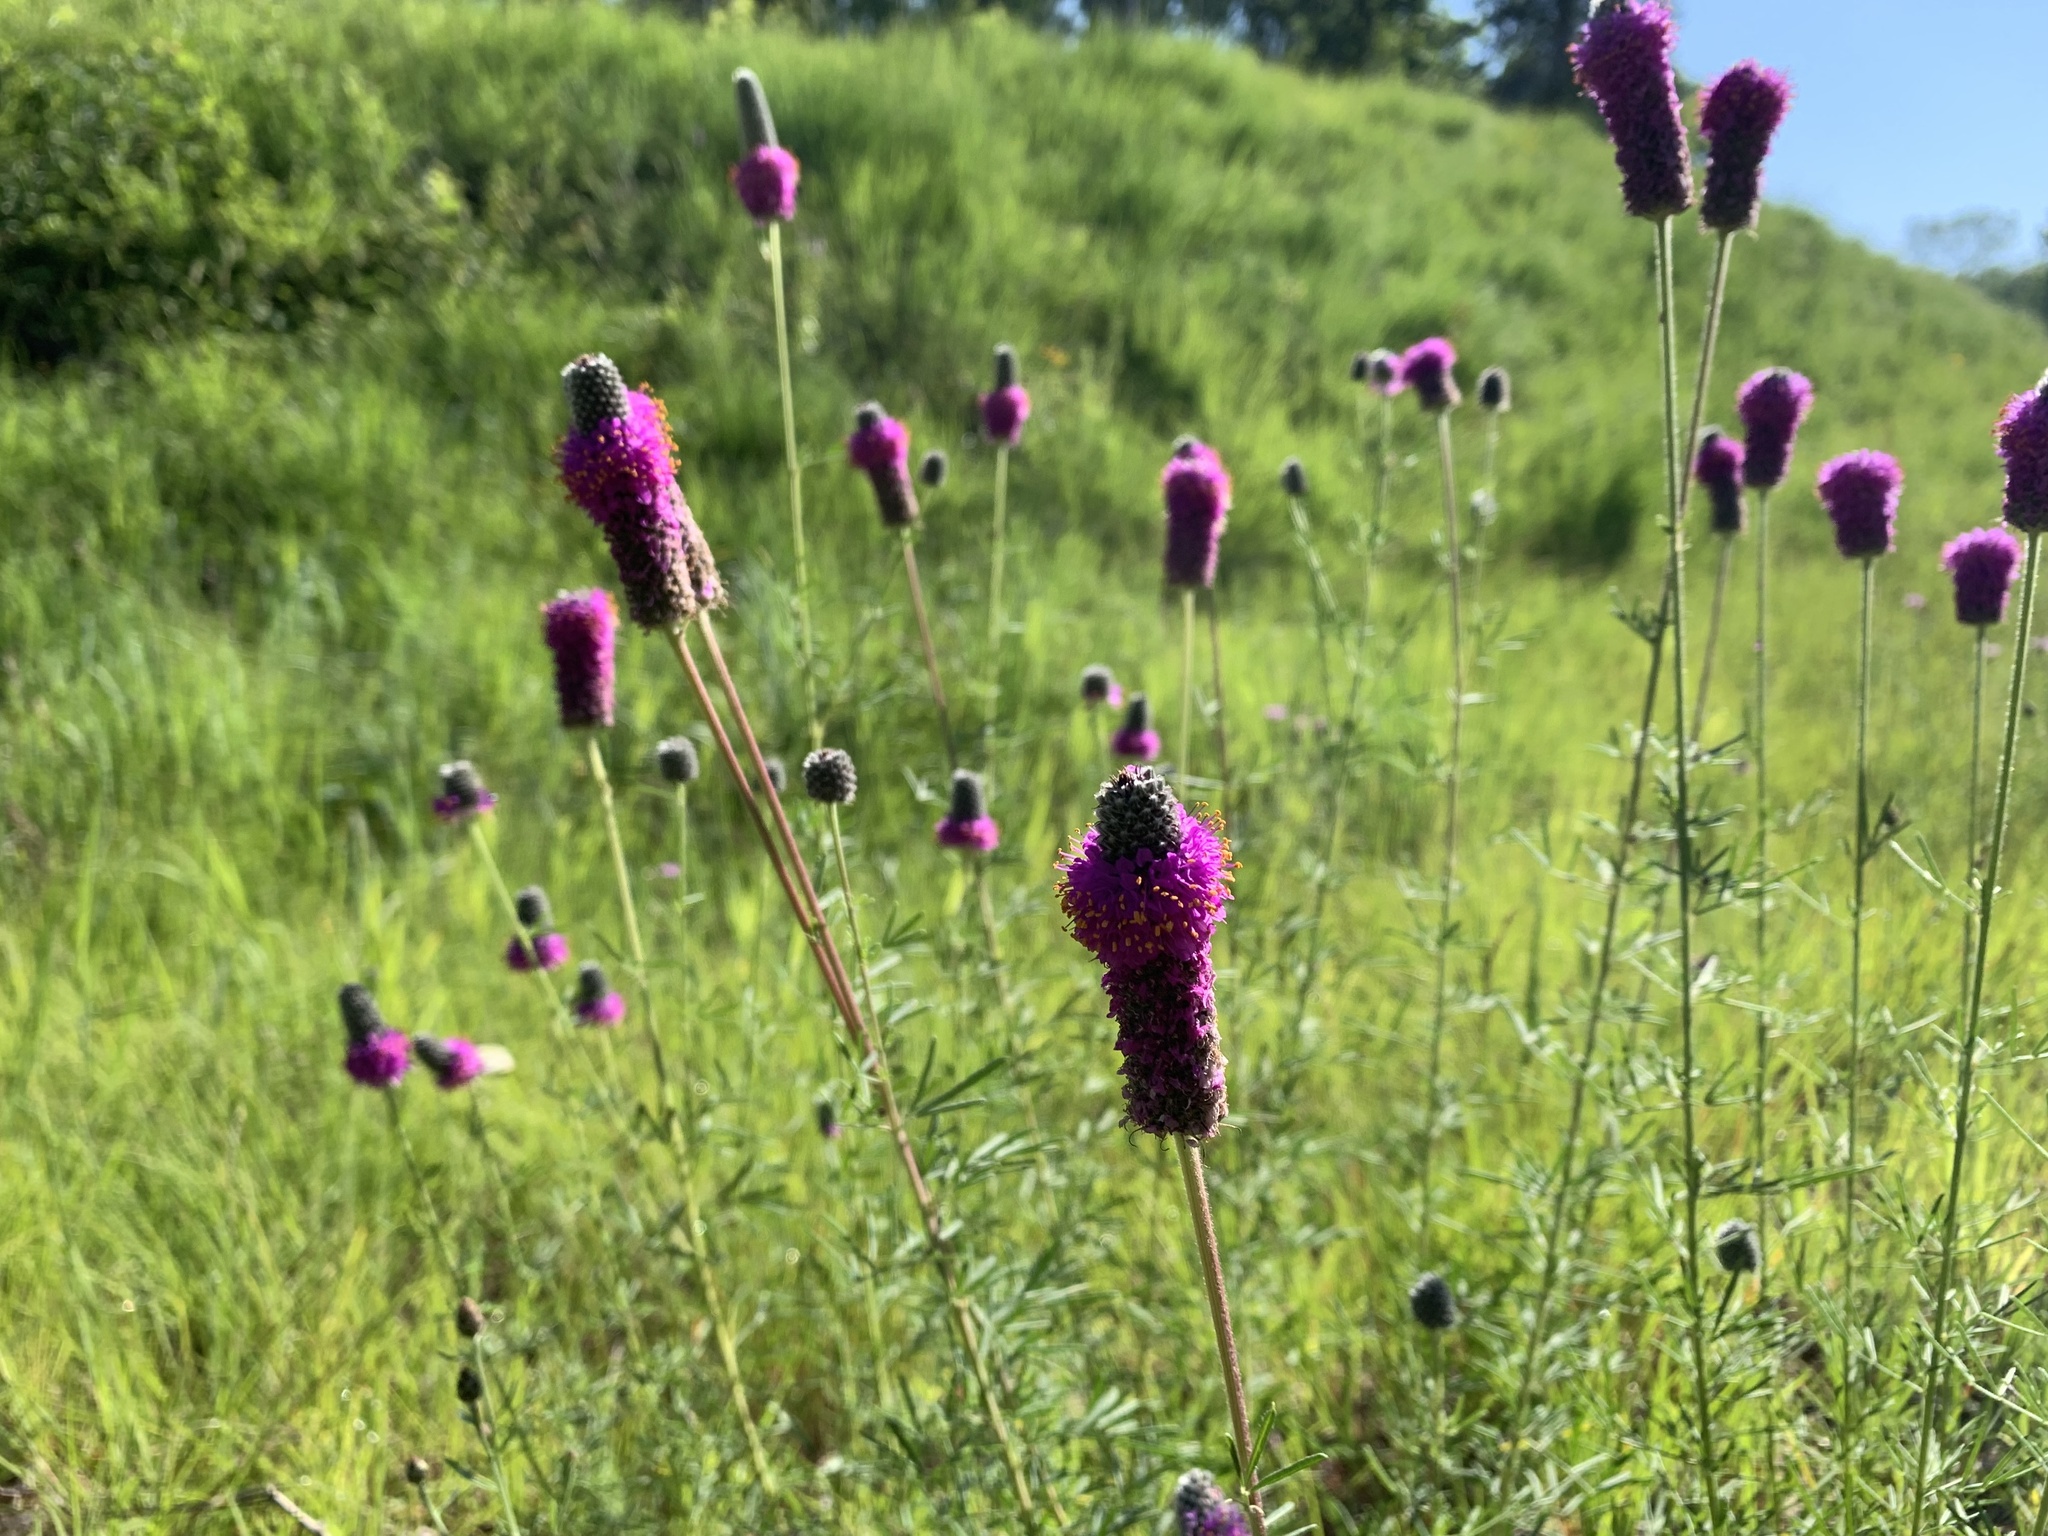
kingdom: Plantae
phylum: Tracheophyta
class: Magnoliopsida
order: Fabales
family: Fabaceae
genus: Dalea
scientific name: Dalea purpurea
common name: Purple prairie-clover
